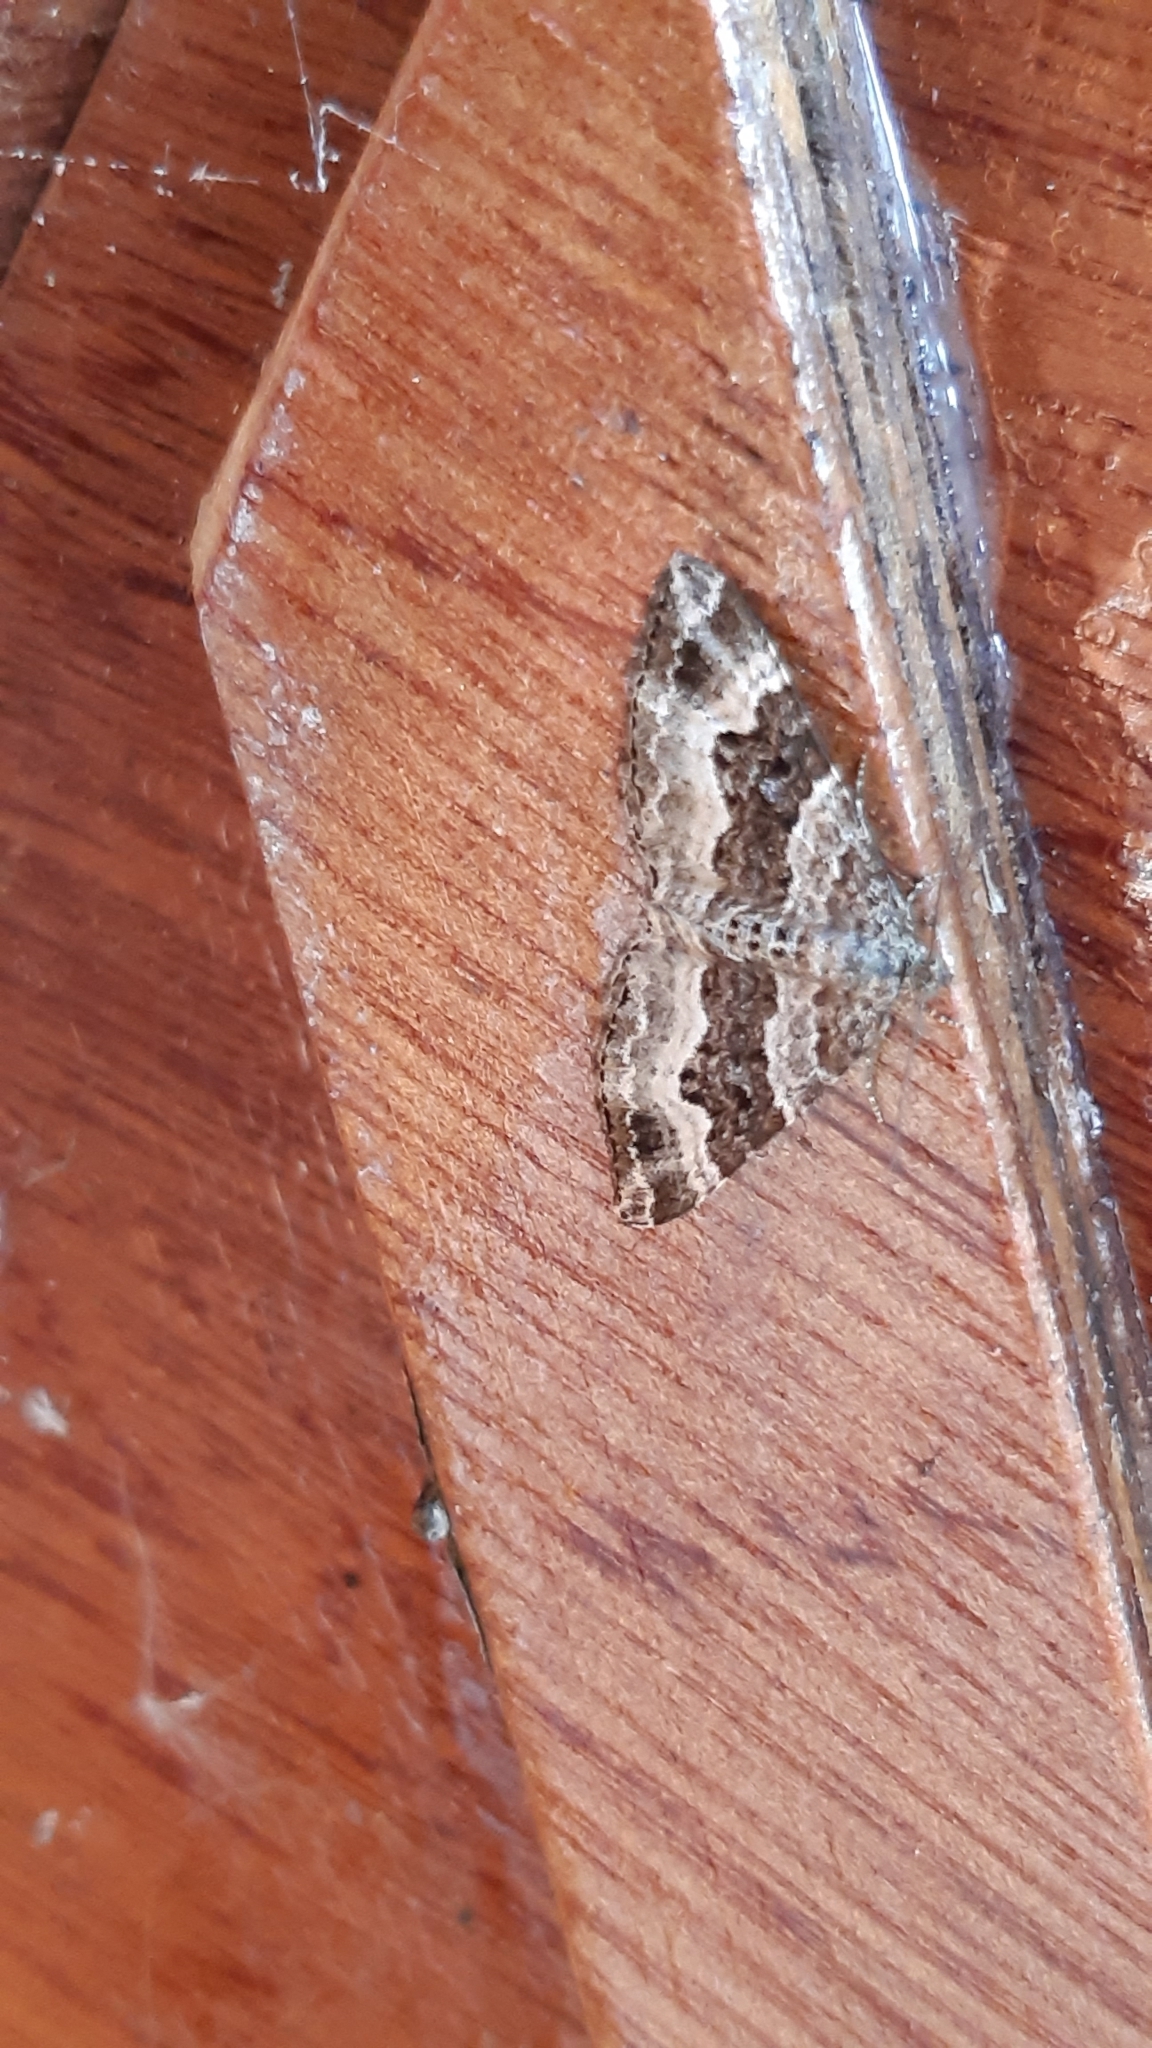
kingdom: Animalia
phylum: Arthropoda
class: Insecta
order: Lepidoptera
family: Geometridae
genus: Epirrhoe
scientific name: Epirrhoe alternata
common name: Common carpet
